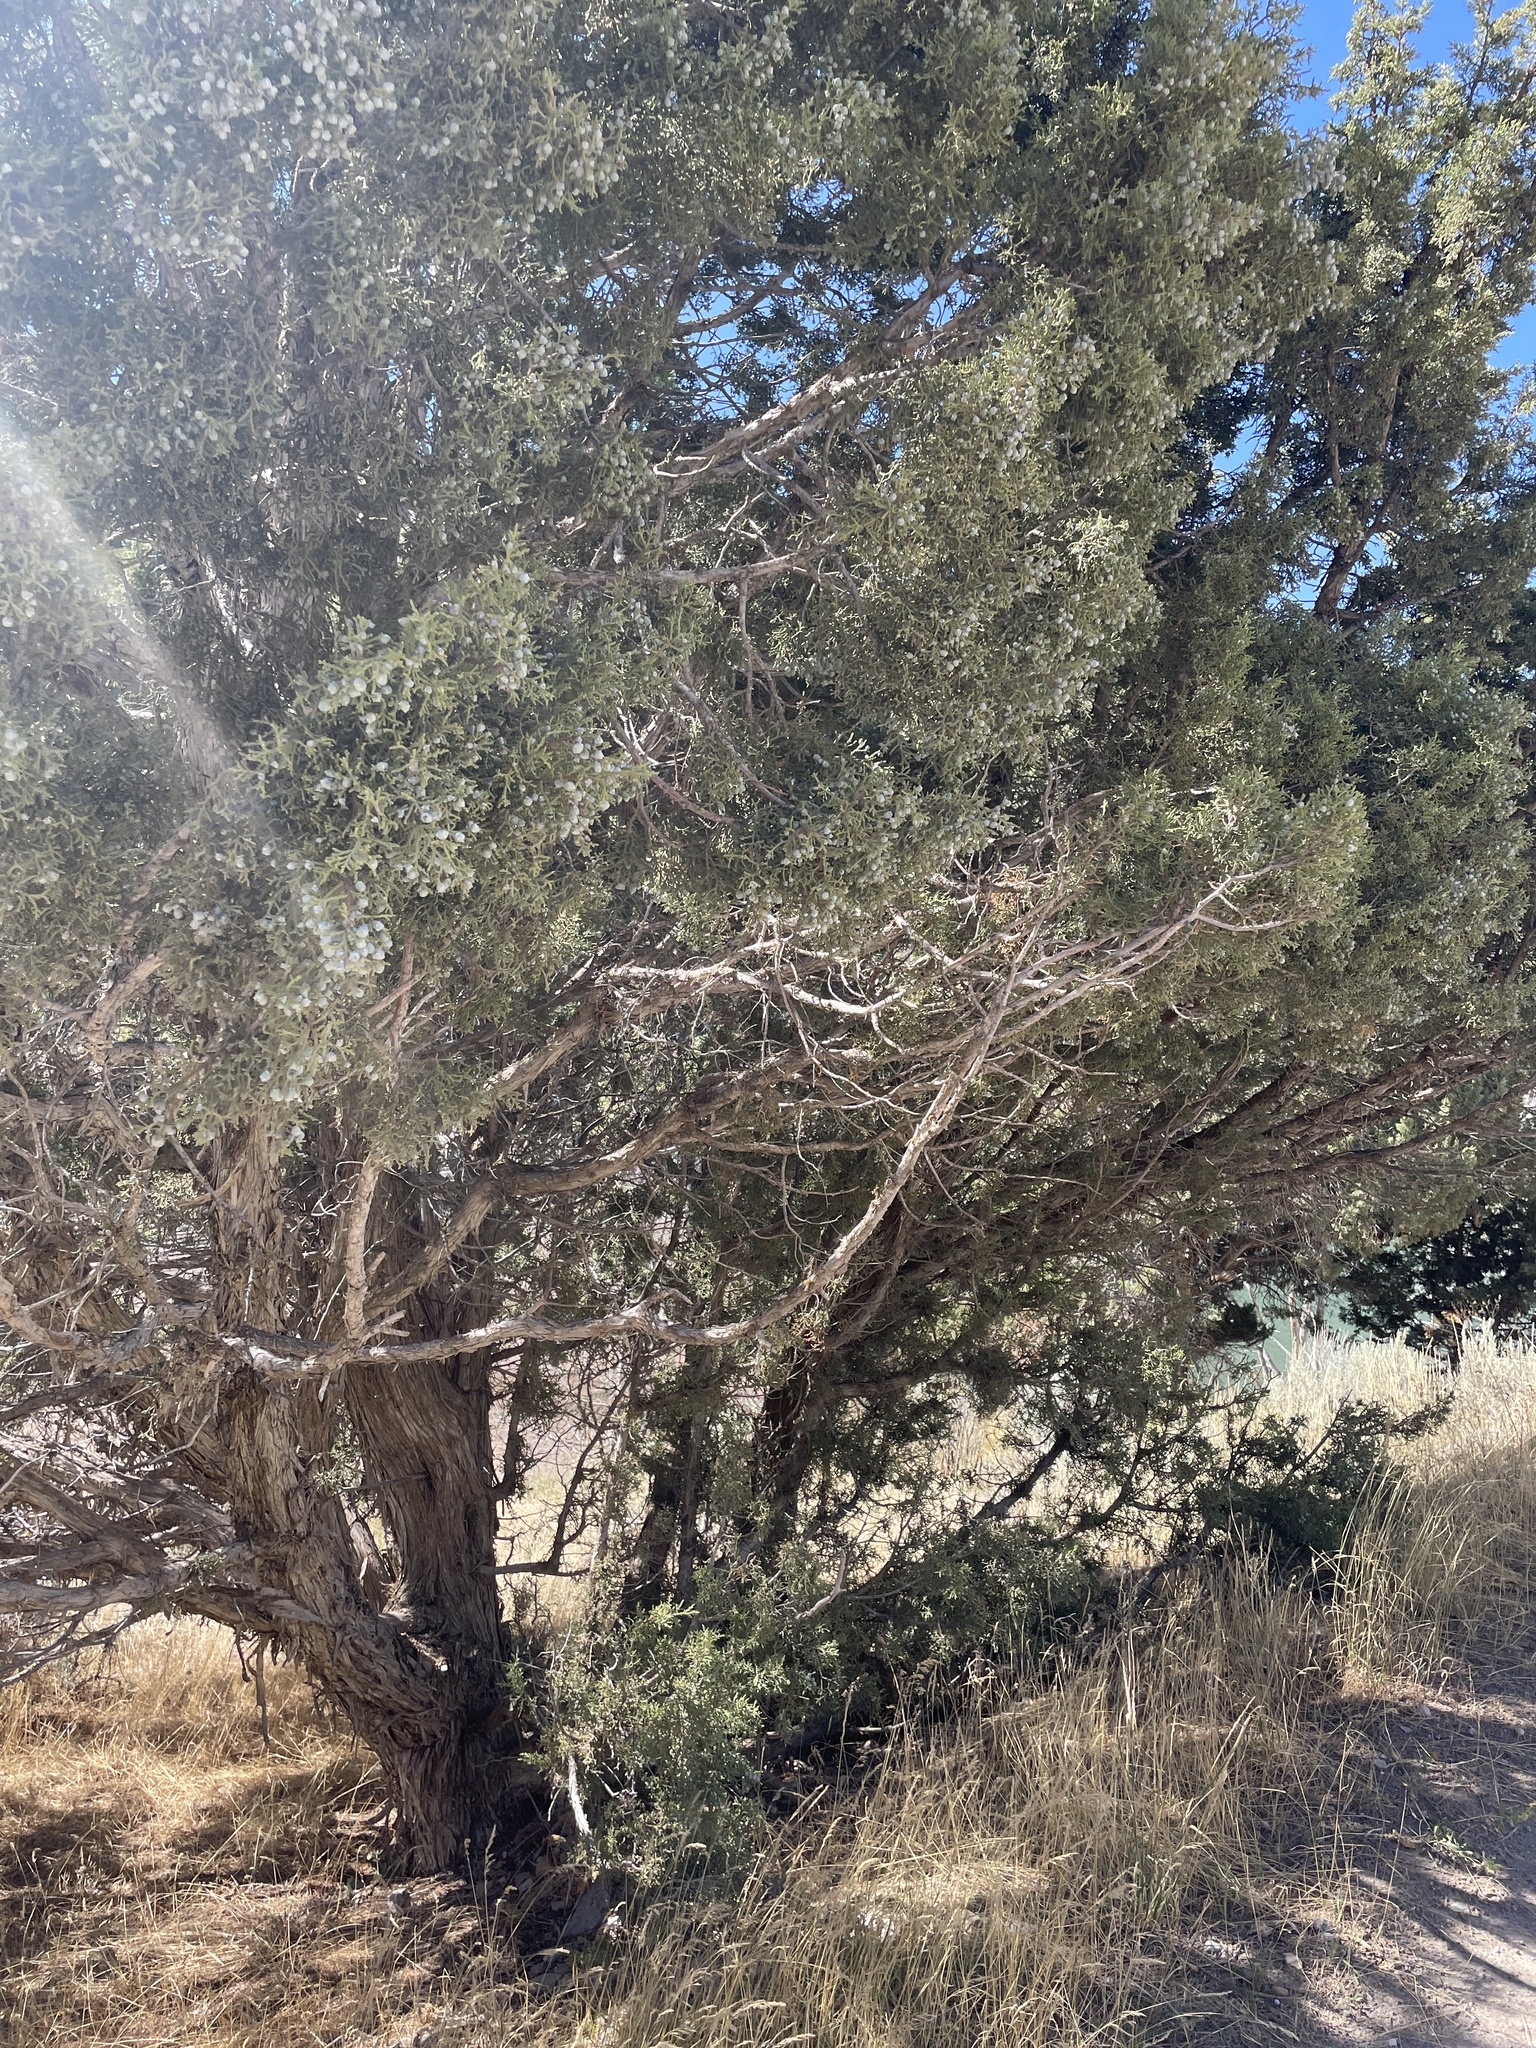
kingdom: Plantae
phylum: Tracheophyta
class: Pinopsida
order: Pinales
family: Cupressaceae
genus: Juniperus
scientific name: Juniperus osteosperma
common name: Utah juniper
